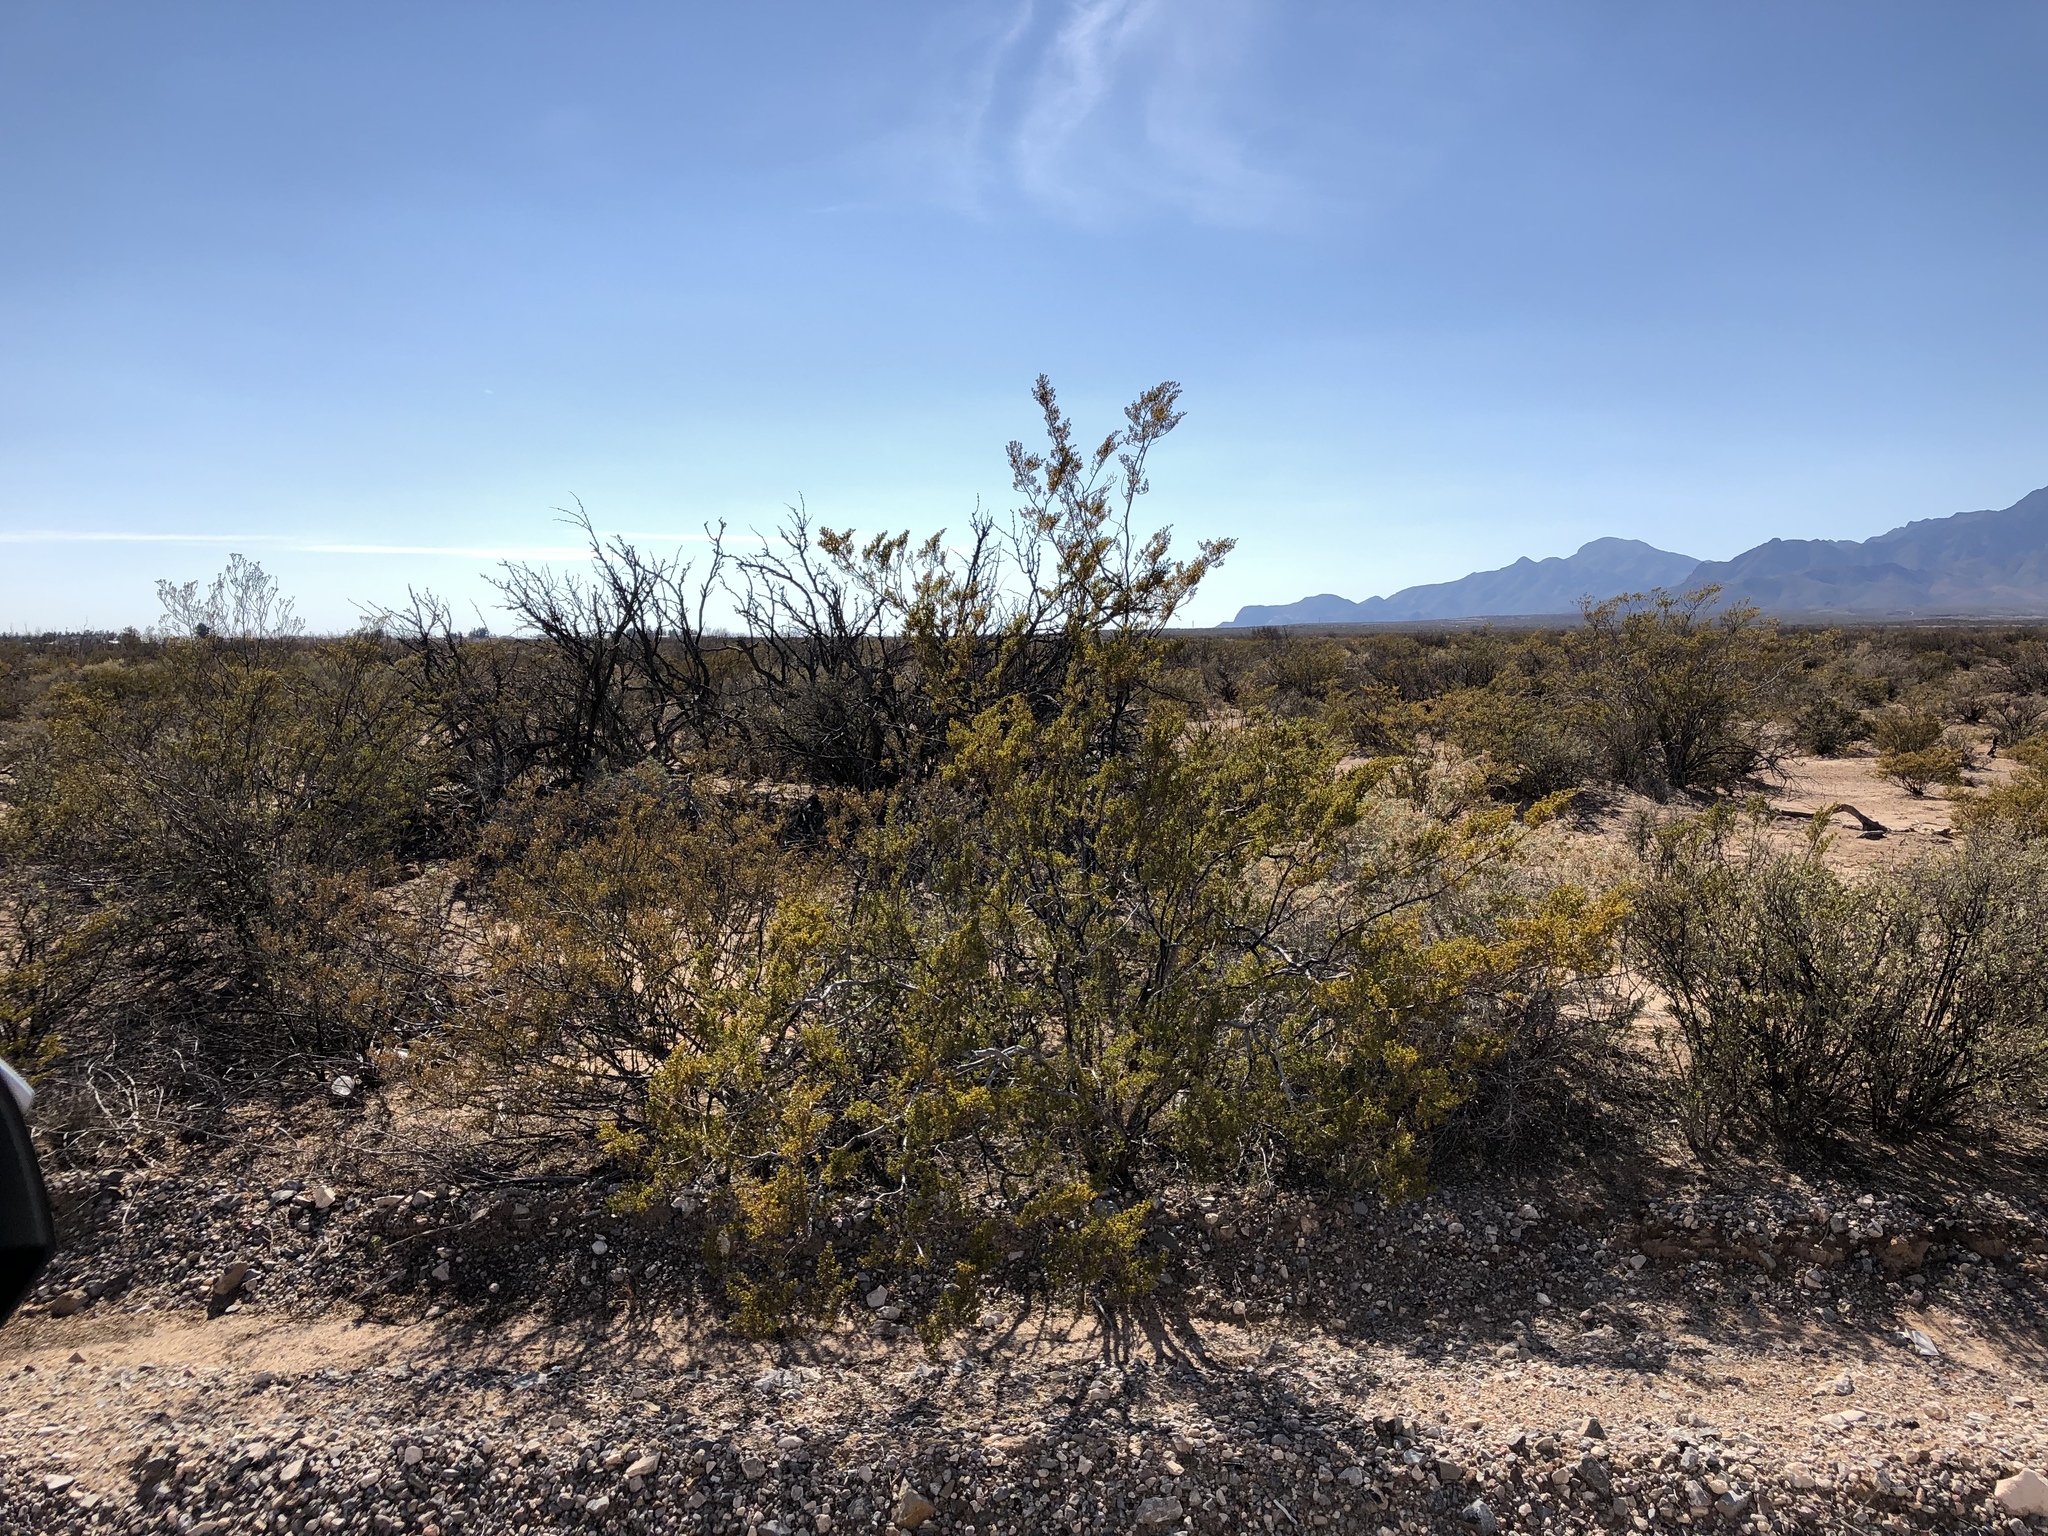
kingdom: Plantae
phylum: Tracheophyta
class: Magnoliopsida
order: Zygophyllales
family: Zygophyllaceae
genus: Larrea
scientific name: Larrea tridentata
